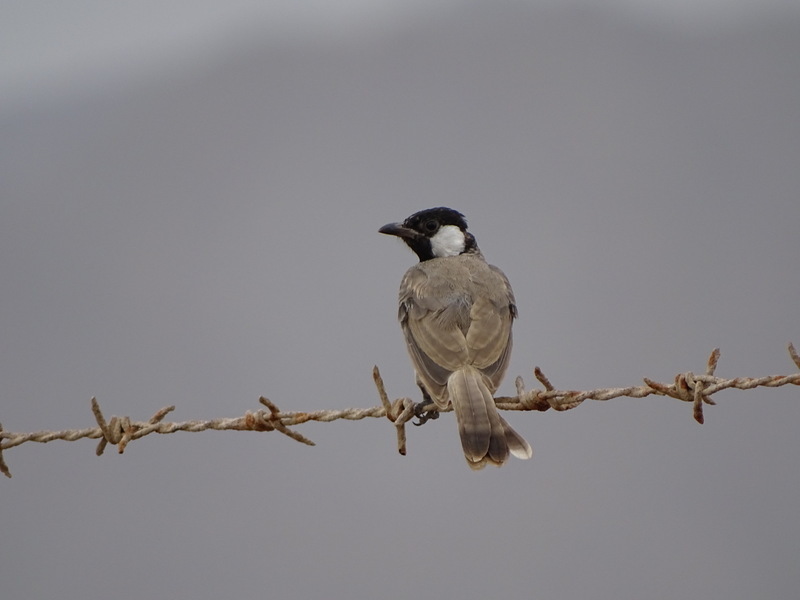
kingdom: Animalia
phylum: Chordata
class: Aves
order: Passeriformes
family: Pycnonotidae
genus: Pycnonotus
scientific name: Pycnonotus leucotis
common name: White-eared bulbul
